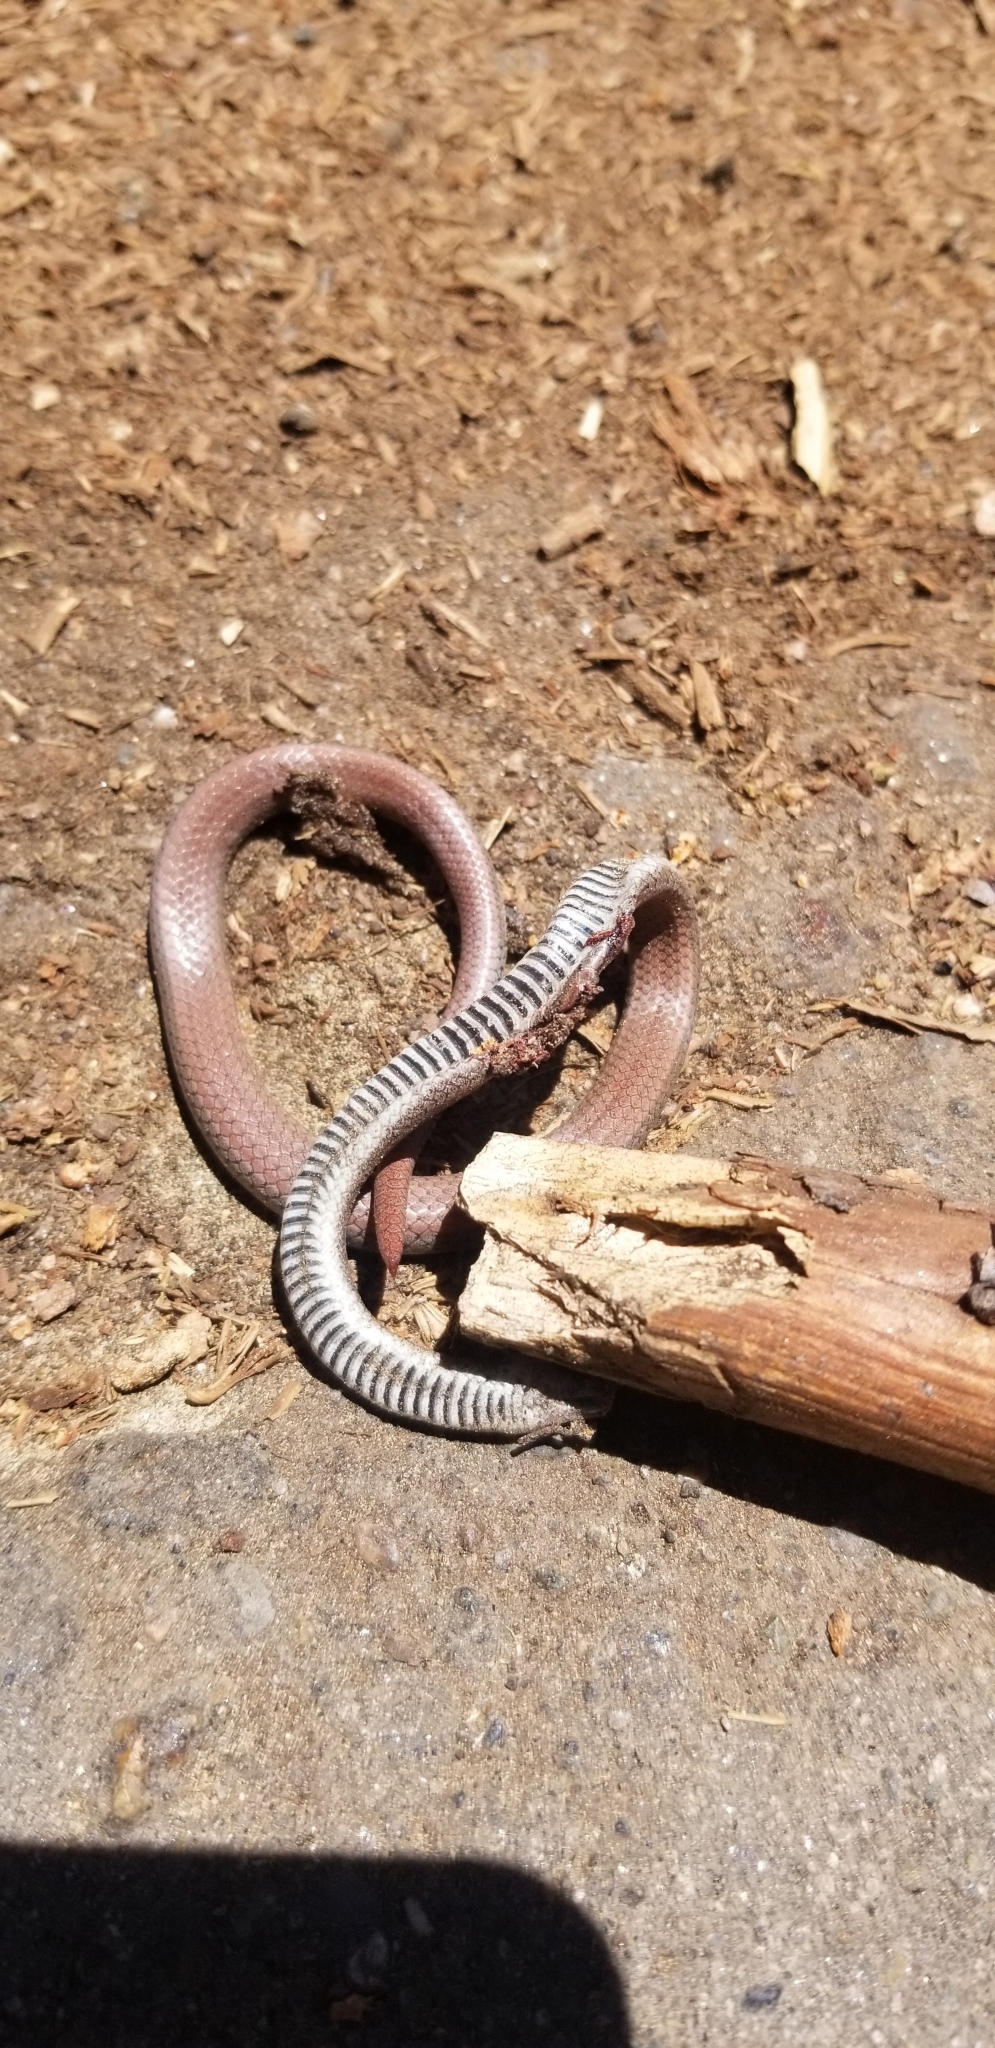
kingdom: Animalia
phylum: Chordata
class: Squamata
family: Colubridae
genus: Contia
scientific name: Contia tenuis
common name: Sharptail snake
